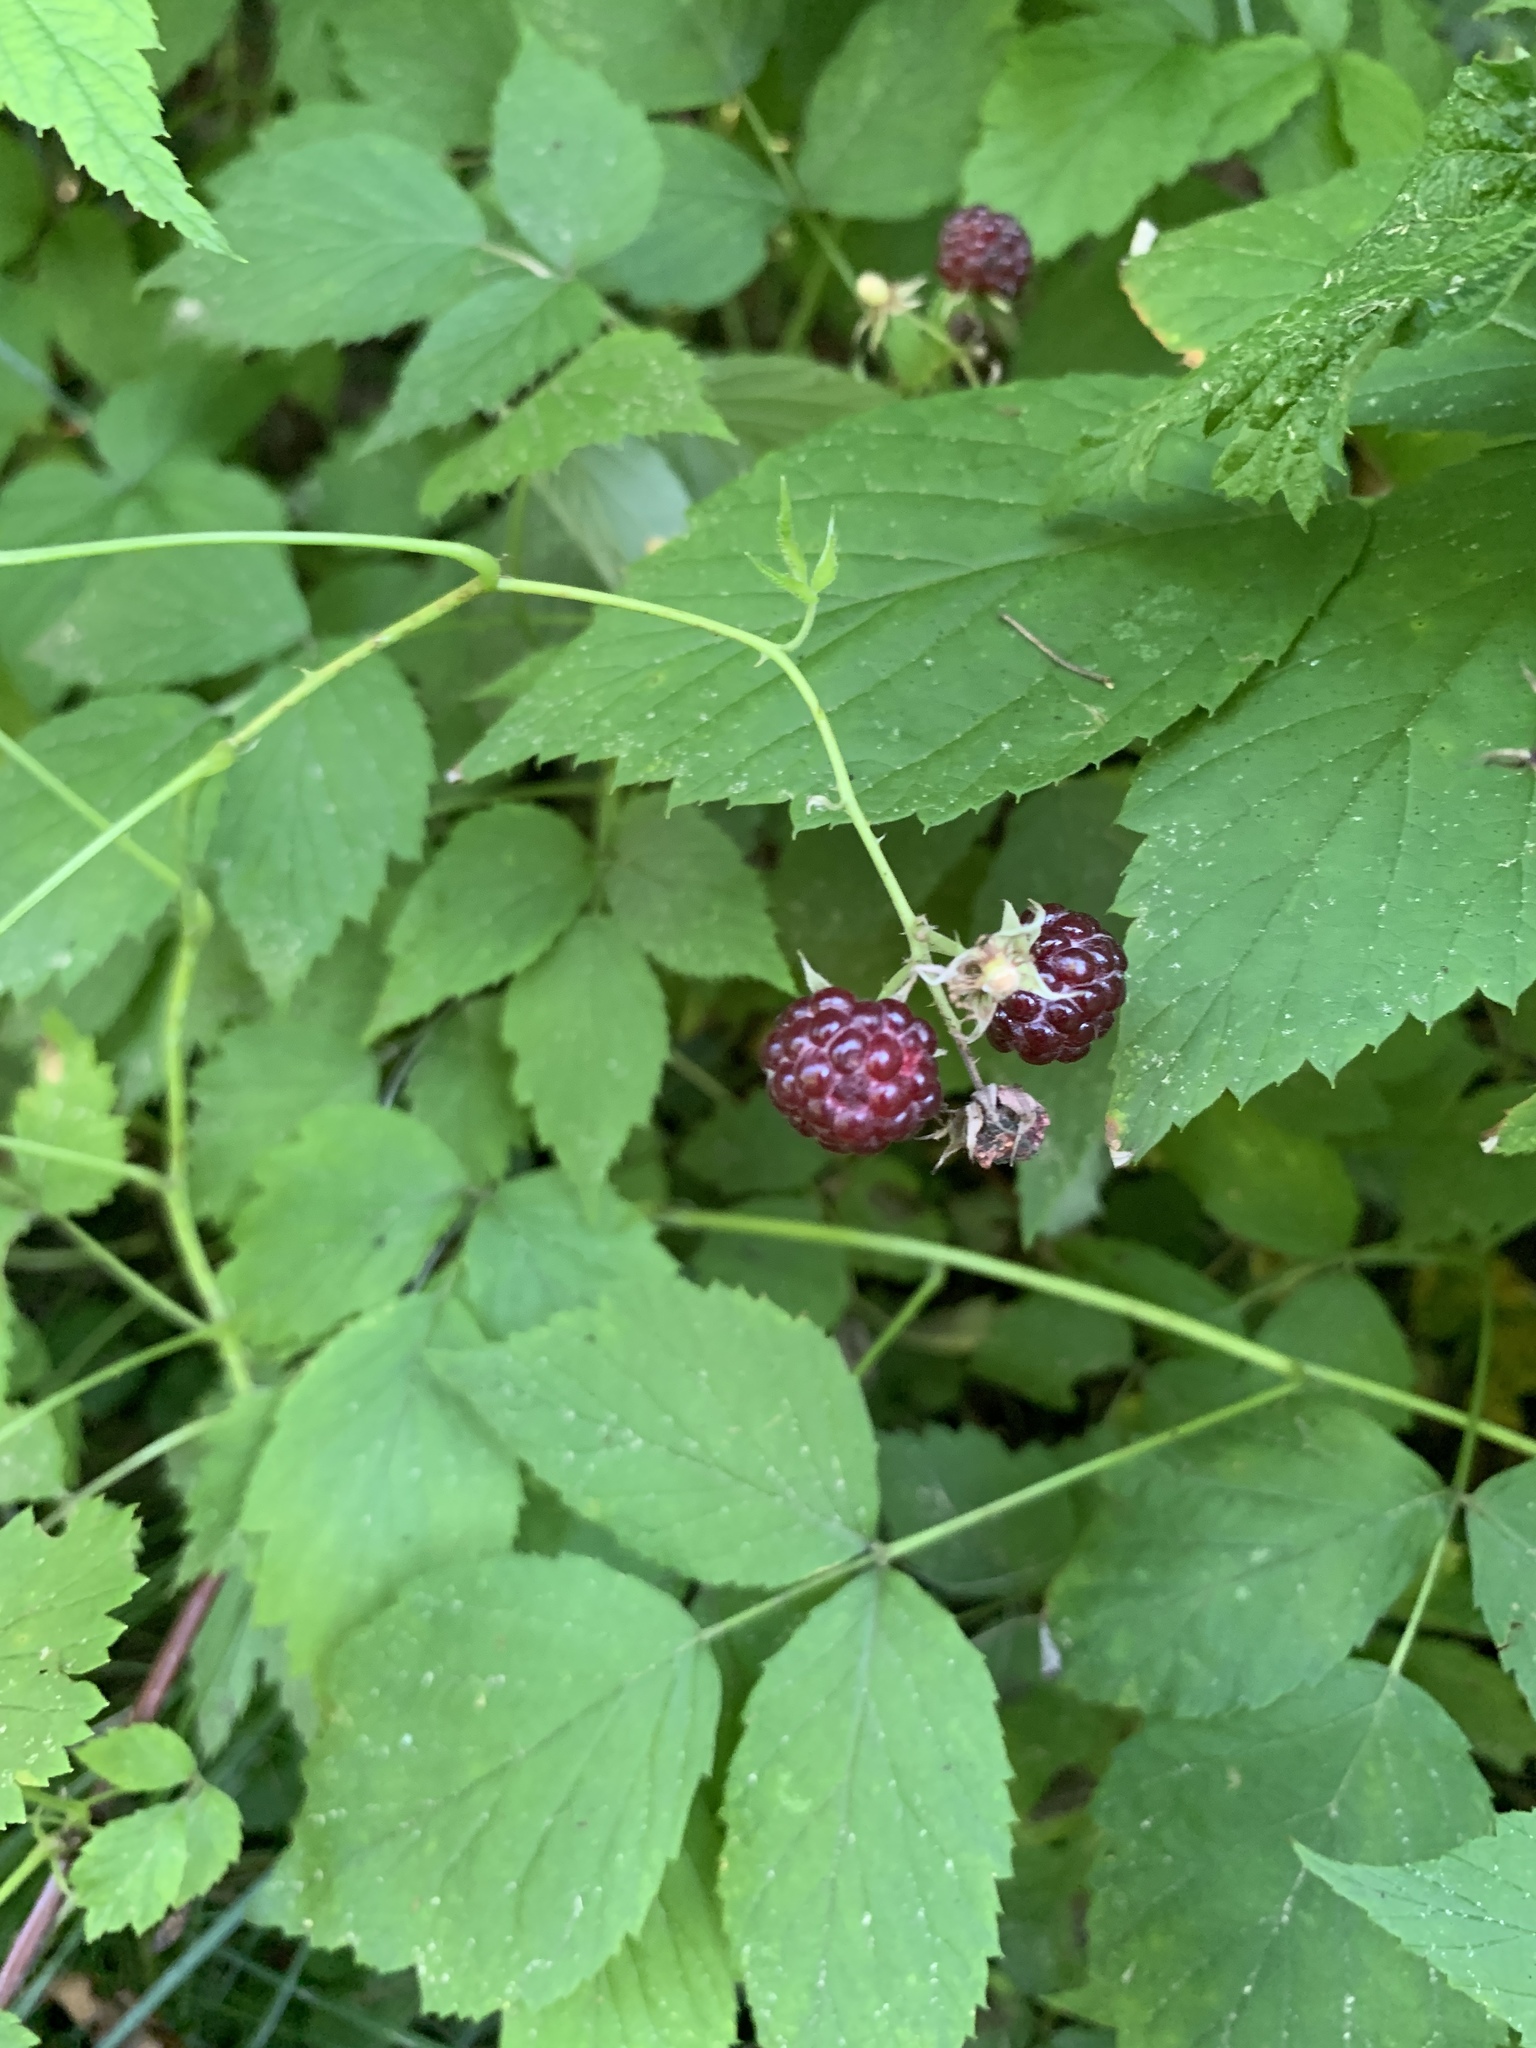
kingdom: Plantae
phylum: Tracheophyta
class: Magnoliopsida
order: Rosales
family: Rosaceae
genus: Rubus
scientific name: Rubus occidentalis
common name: Black raspberry
